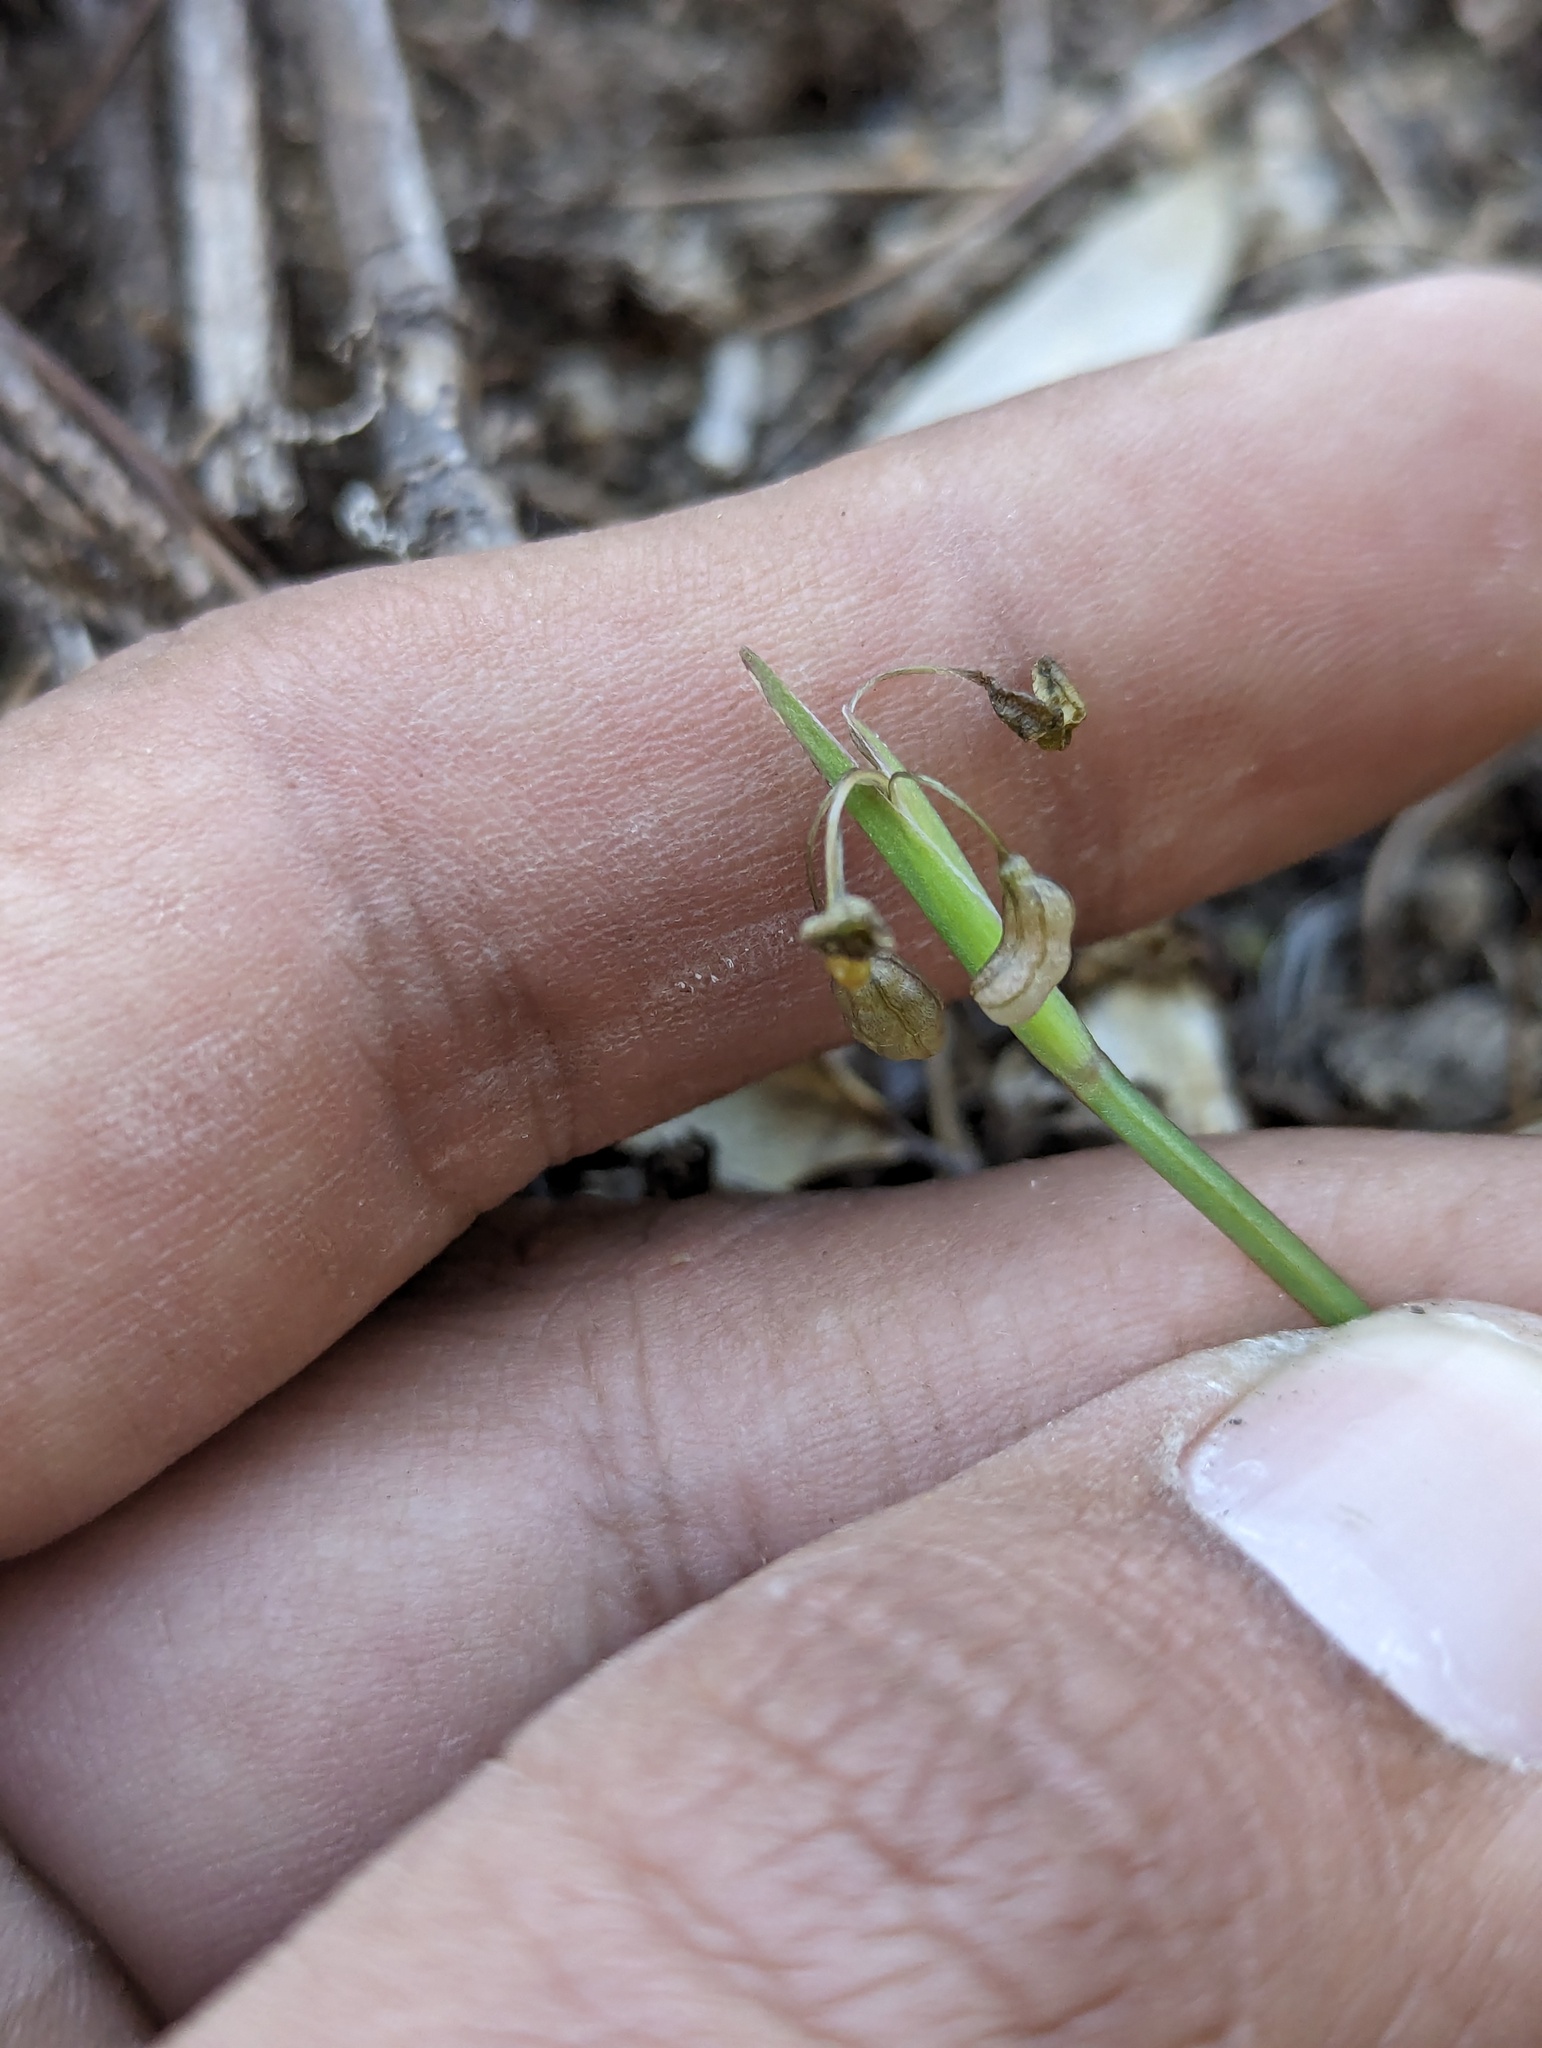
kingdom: Plantae
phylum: Tracheophyta
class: Liliopsida
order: Asparagales
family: Iridaceae
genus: Sisyrinchium
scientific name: Sisyrinchium translucens
